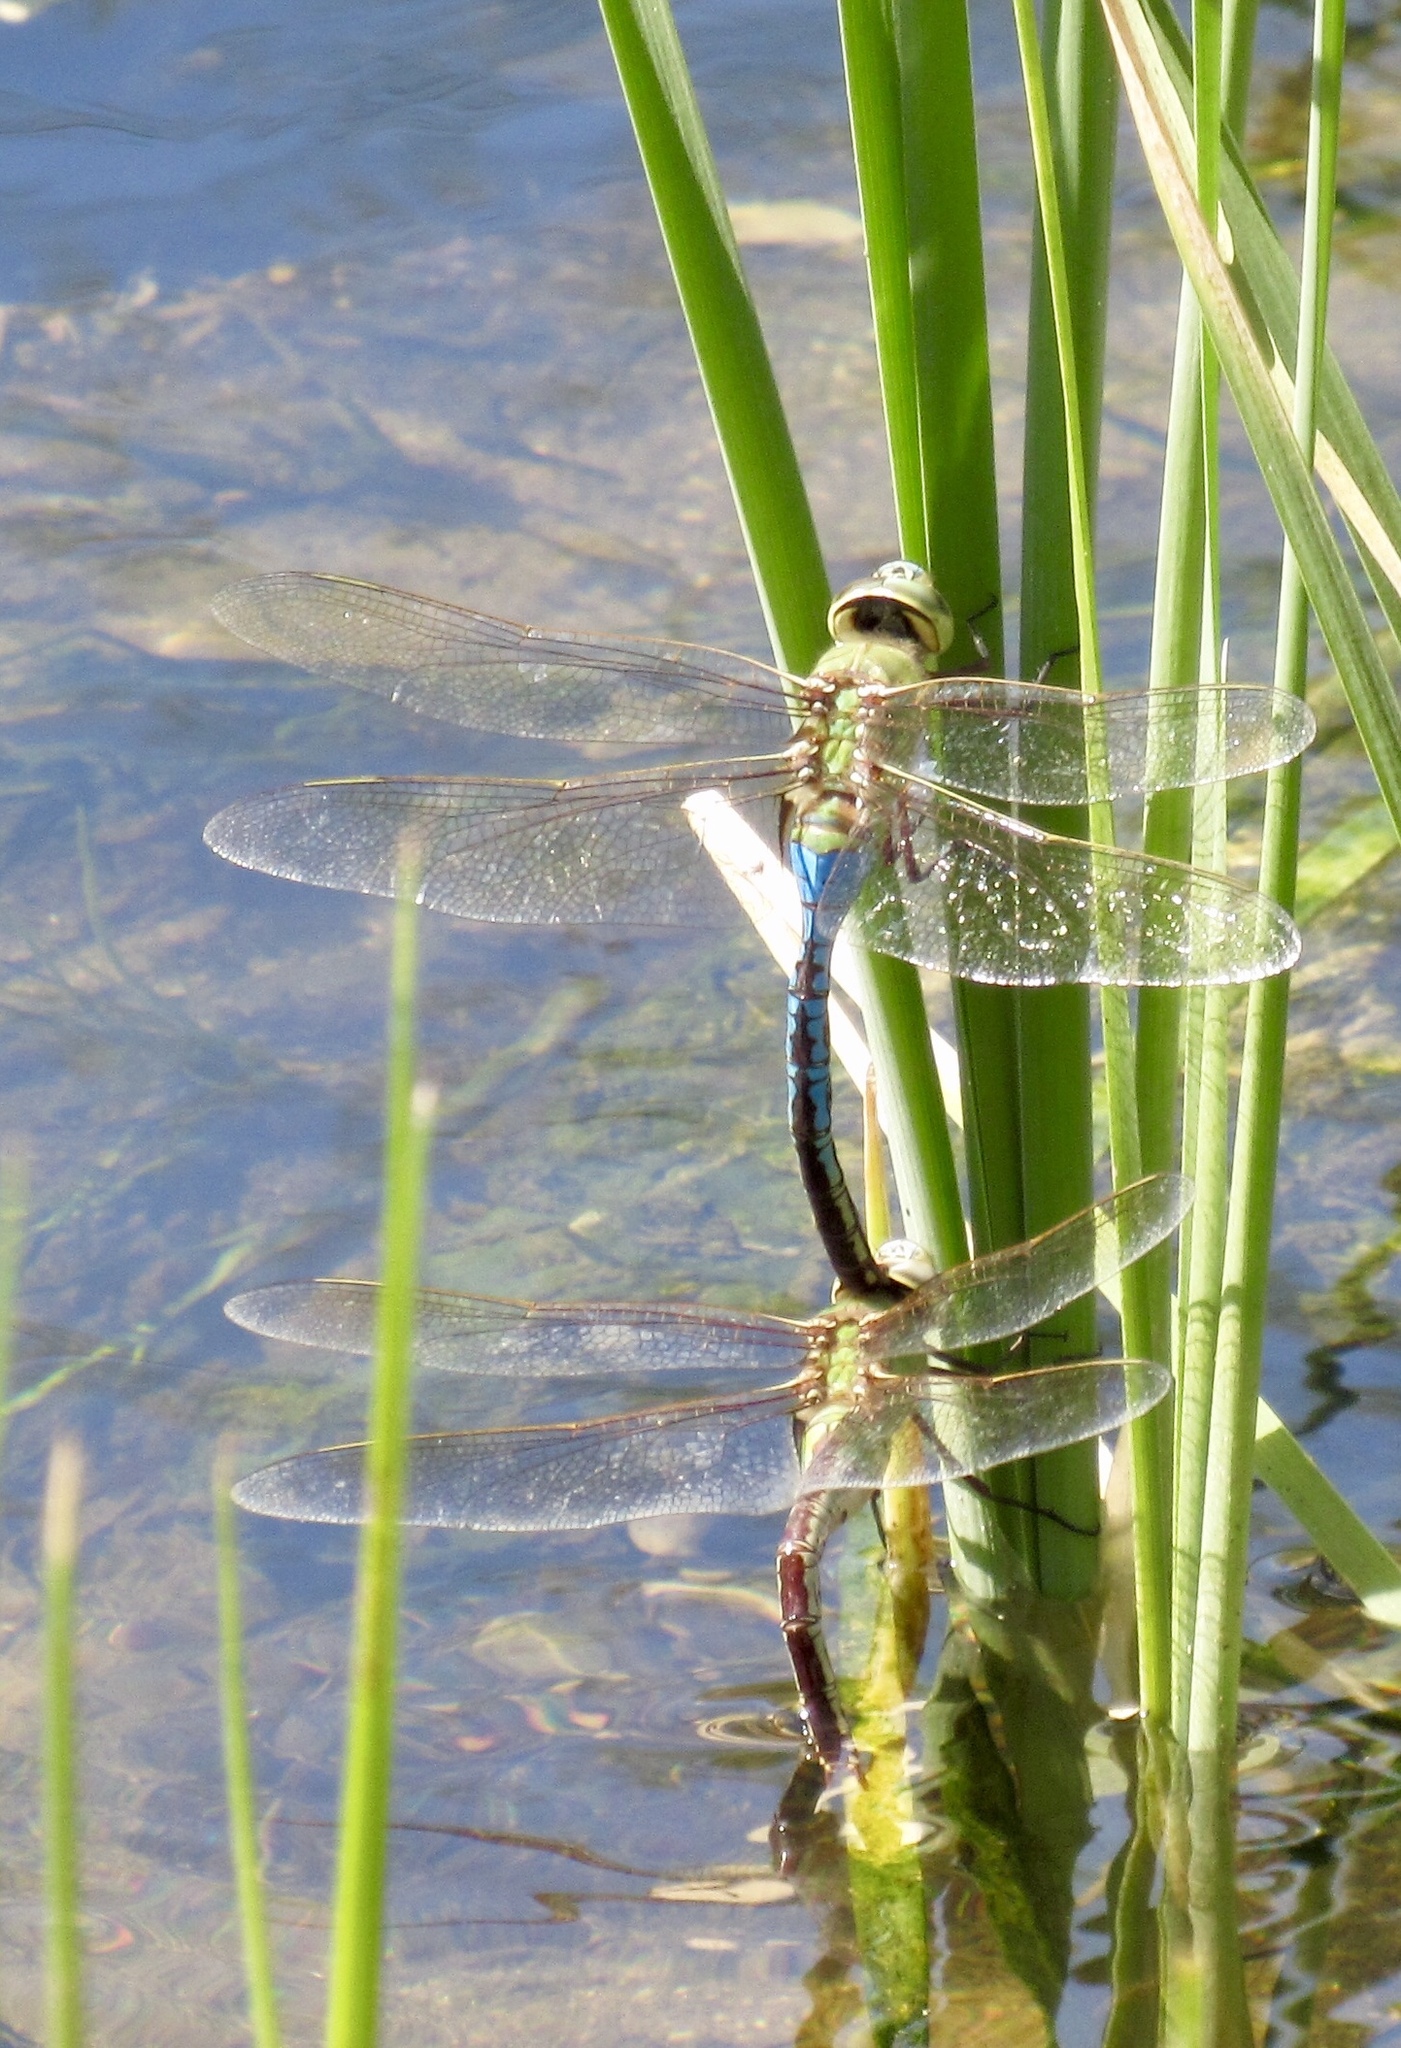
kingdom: Animalia
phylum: Arthropoda
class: Insecta
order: Odonata
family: Aeshnidae
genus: Anax
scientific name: Anax junius
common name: Common green darner
